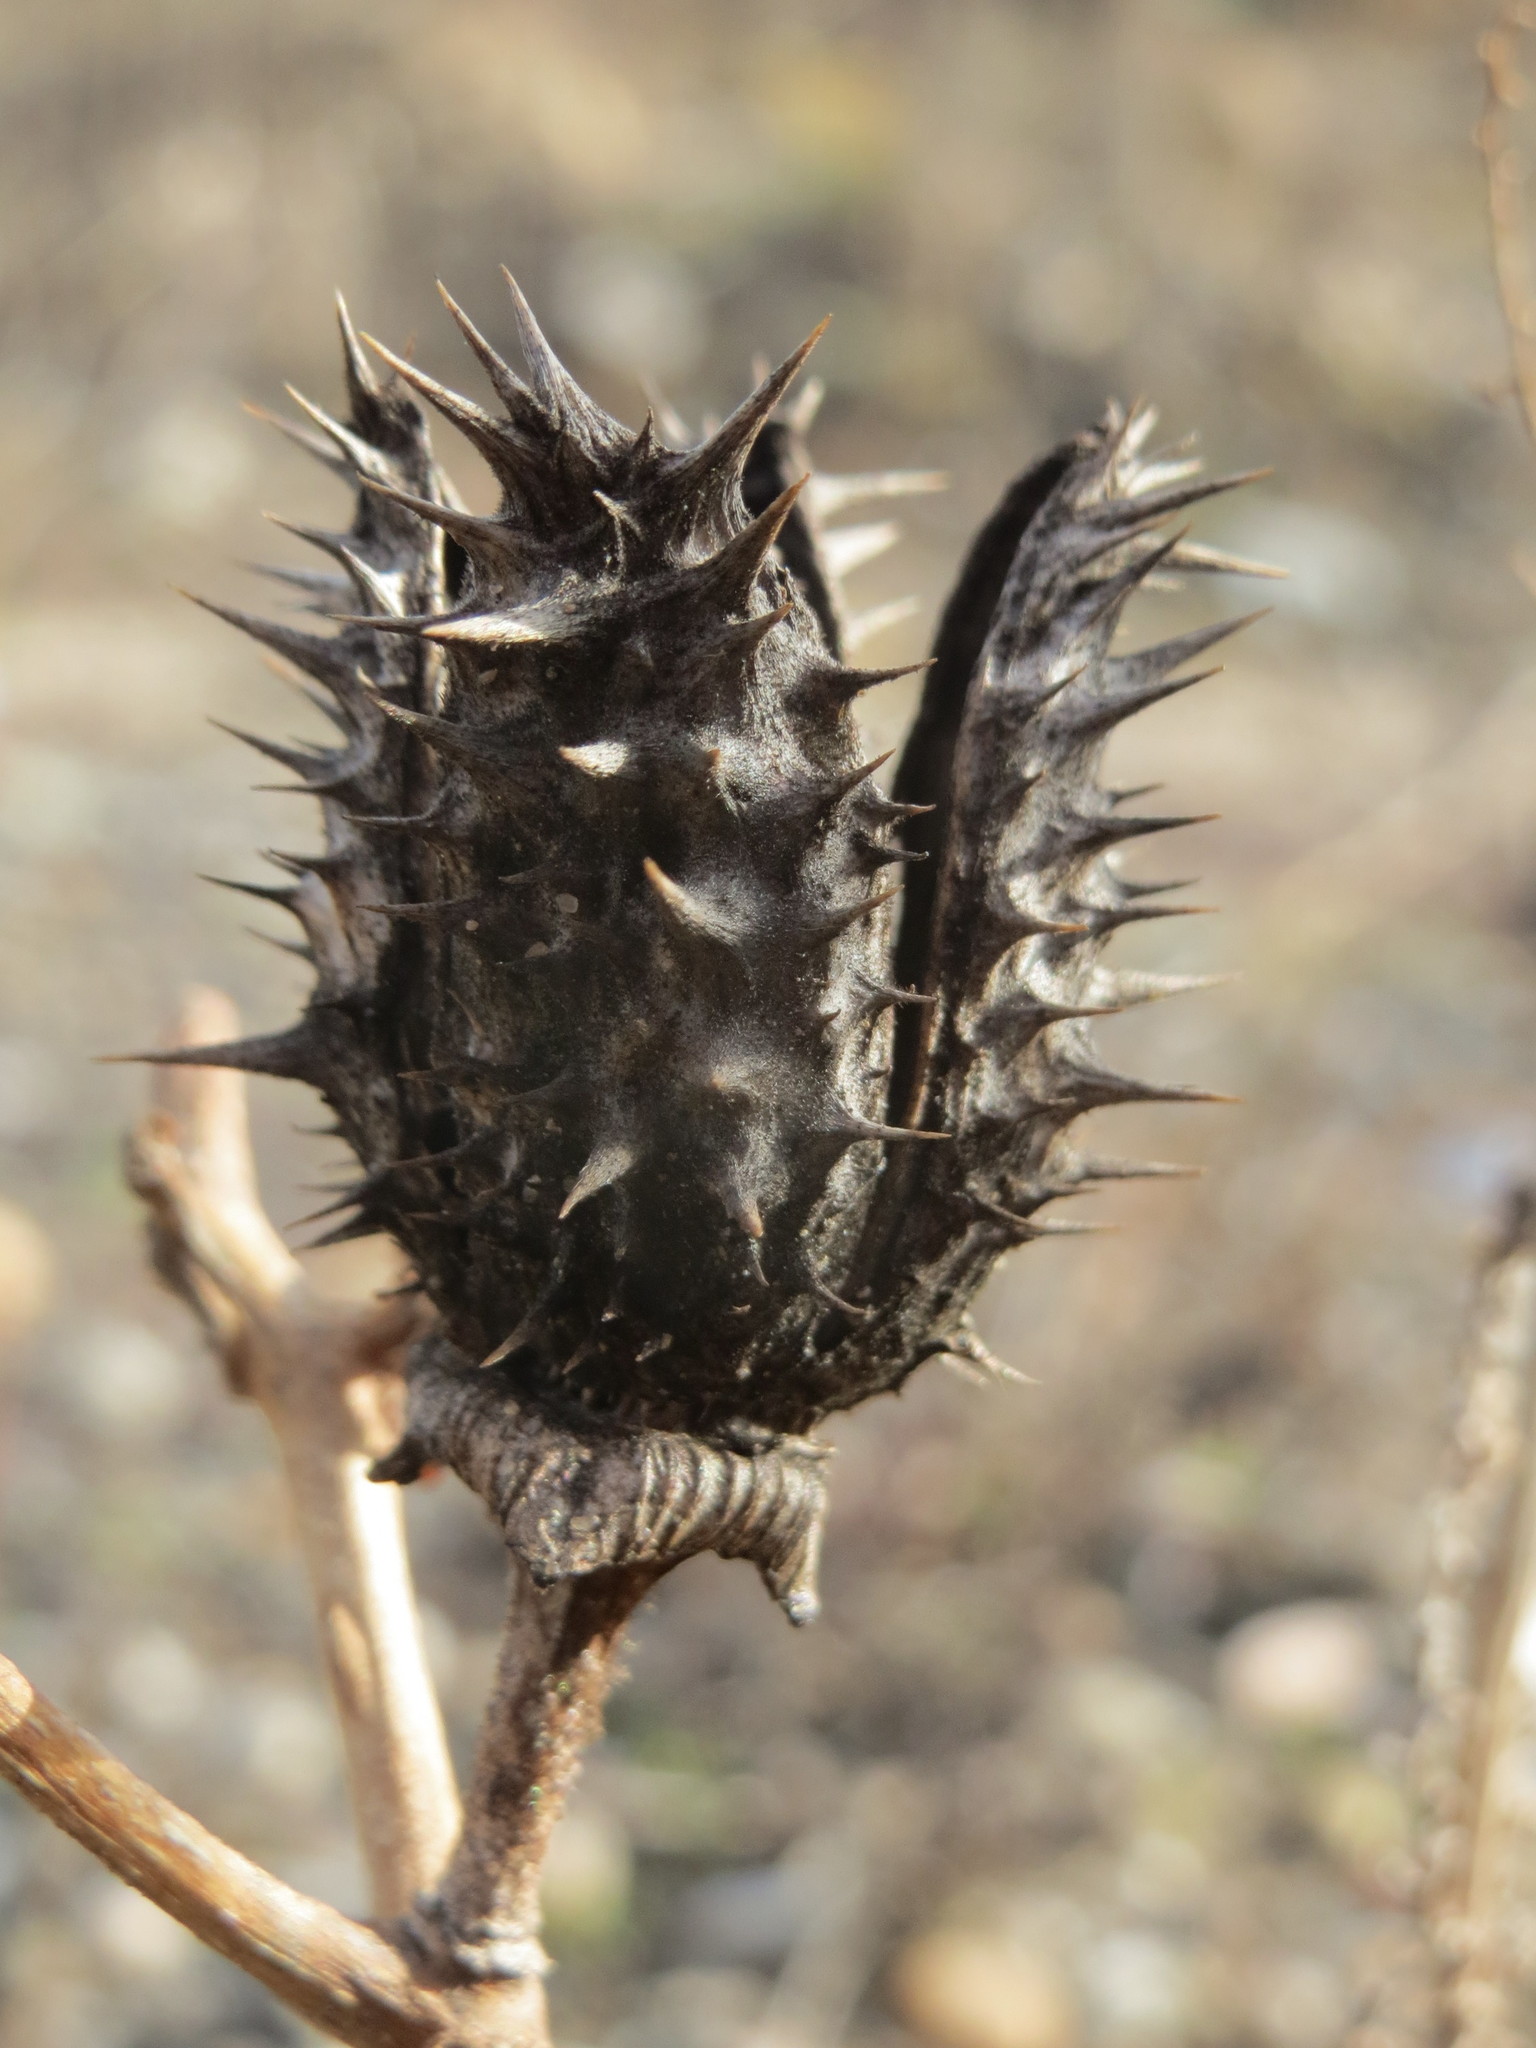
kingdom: Plantae
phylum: Tracheophyta
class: Magnoliopsida
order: Solanales
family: Solanaceae
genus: Datura
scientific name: Datura stramonium
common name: Thorn-apple
